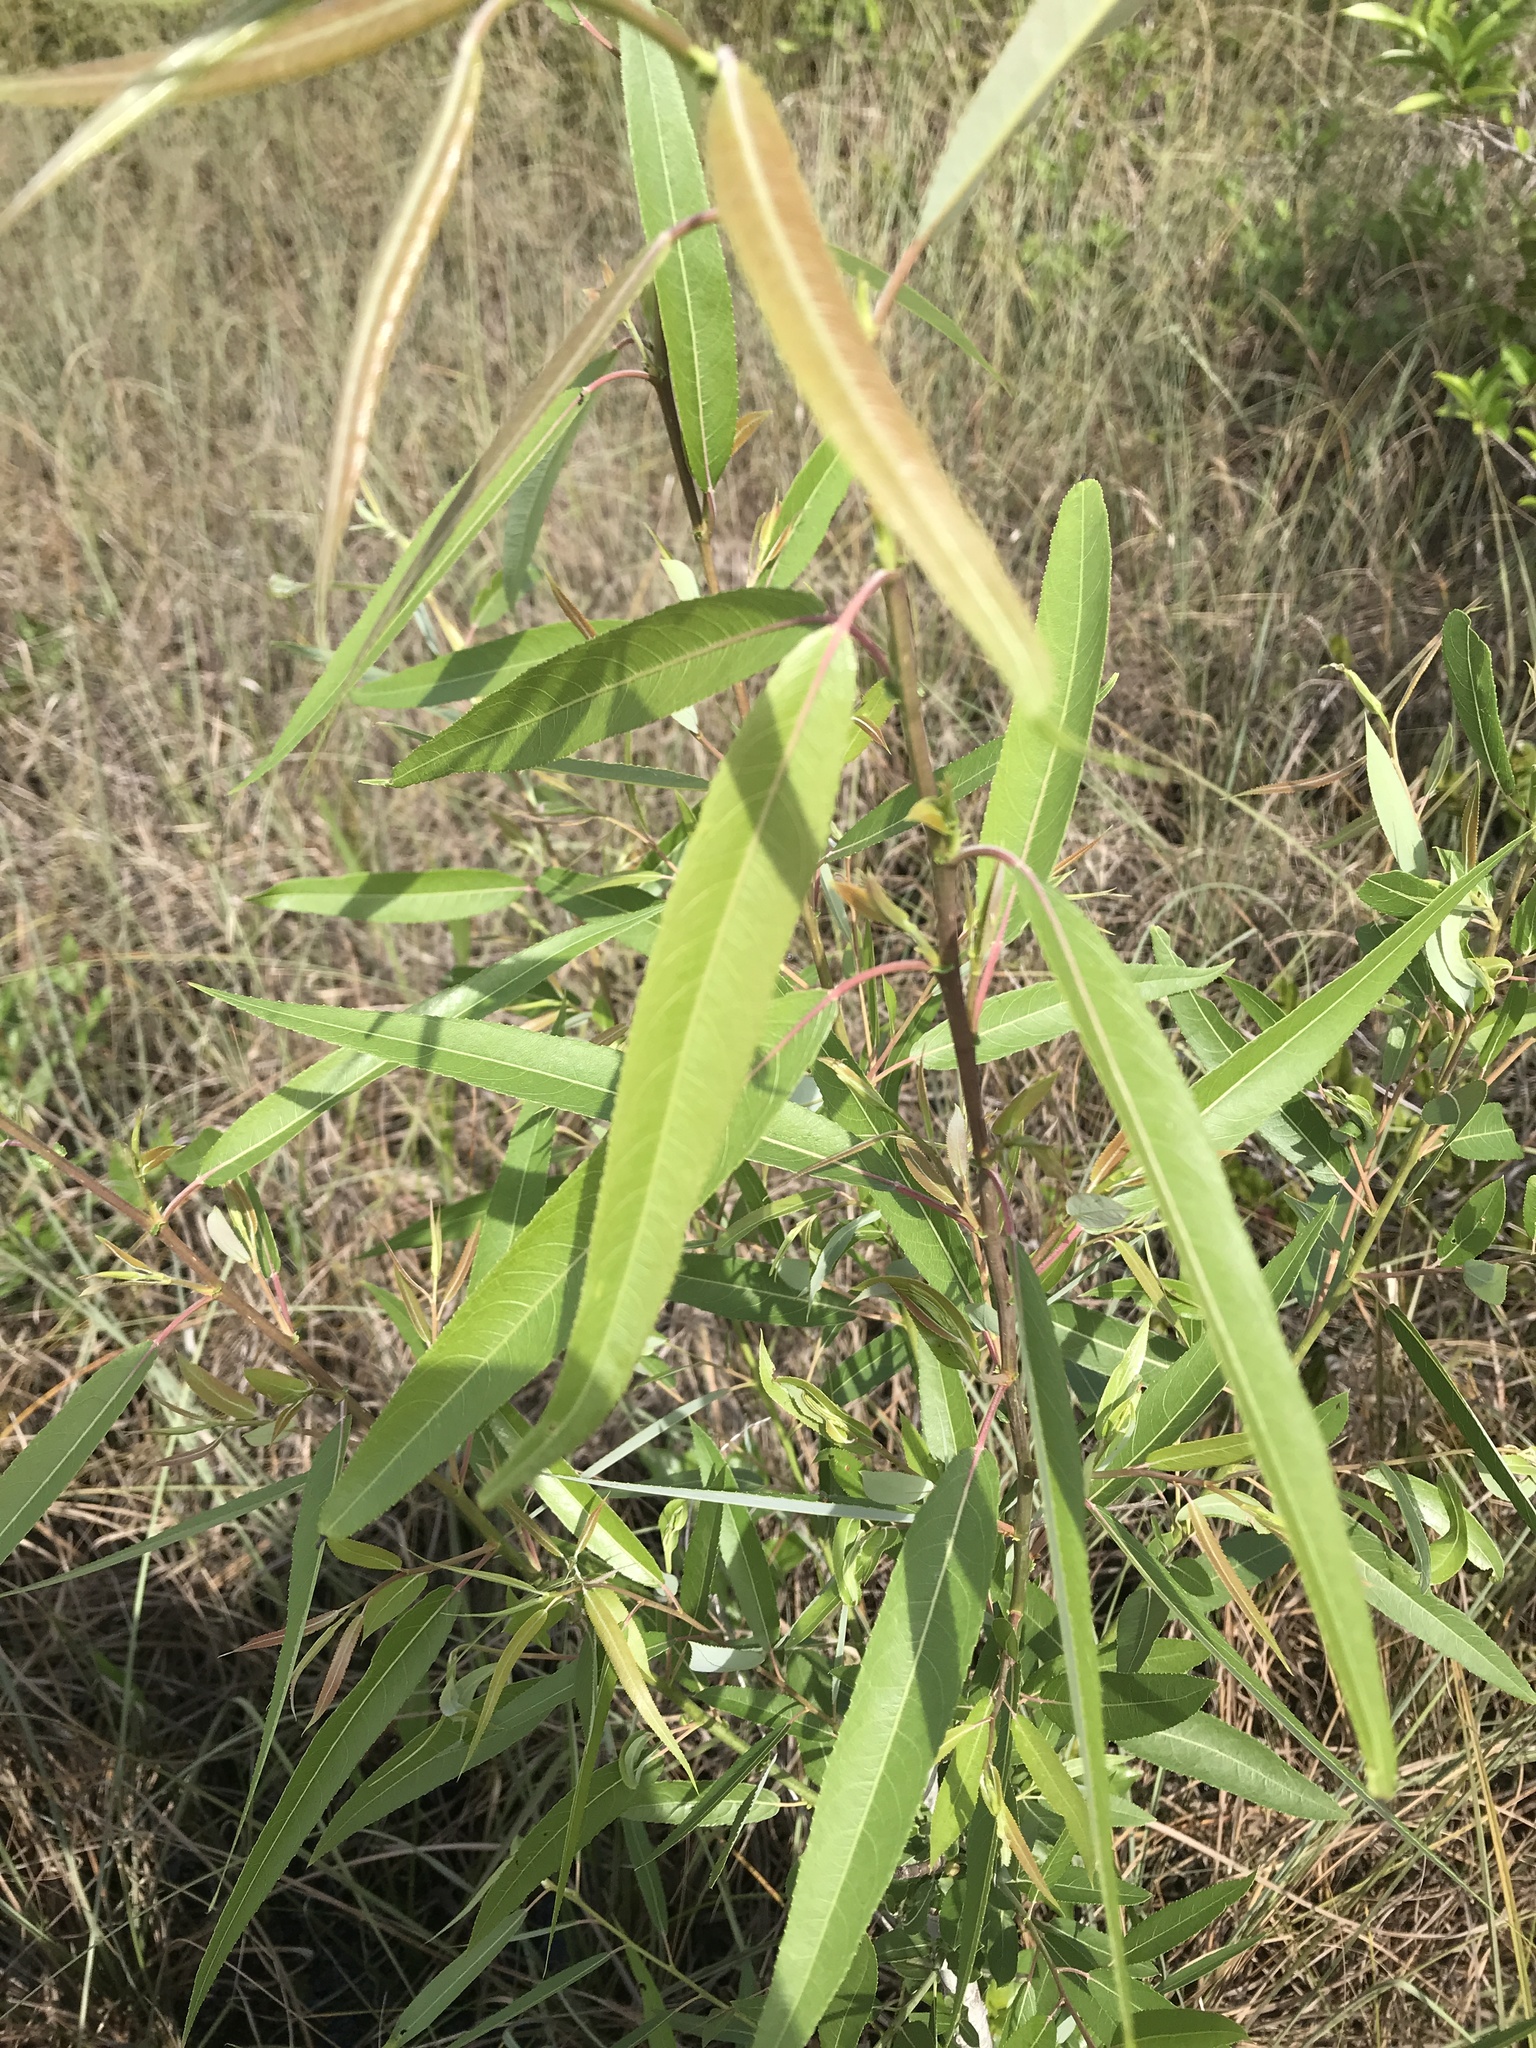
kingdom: Plantae
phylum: Tracheophyta
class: Magnoliopsida
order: Malpighiales
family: Salicaceae
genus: Salix
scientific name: Salix caroliniana
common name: Carolina willow
